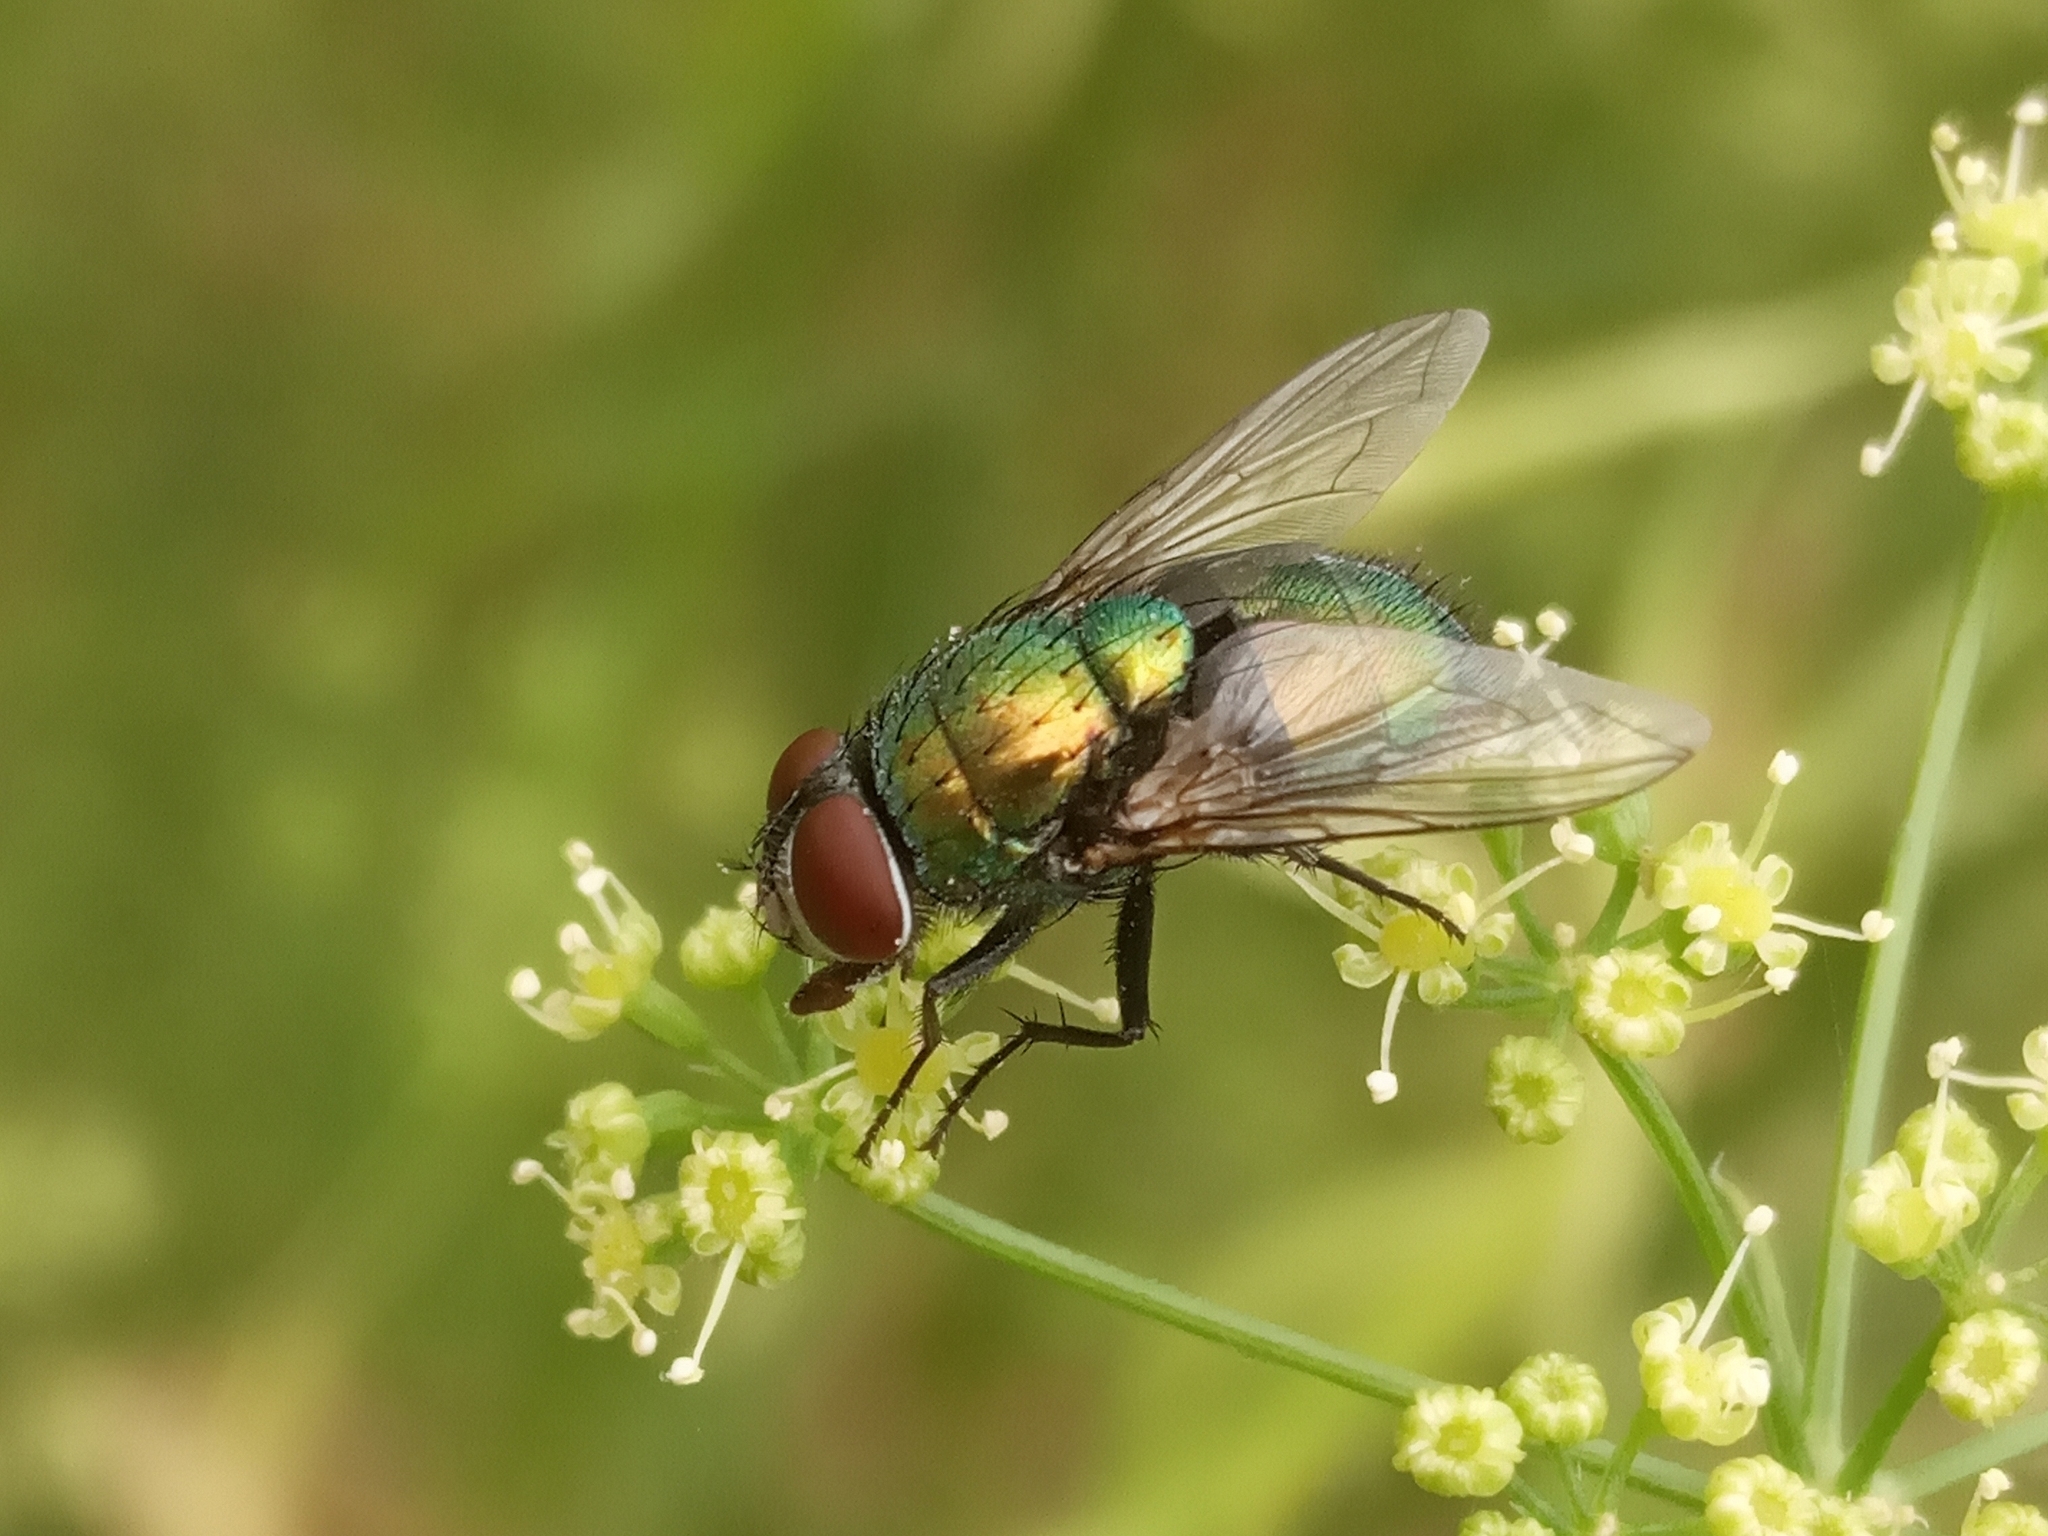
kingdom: Animalia
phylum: Arthropoda
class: Insecta
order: Diptera
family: Calliphoridae
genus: Lucilia
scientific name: Lucilia sericata
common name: Blow fly
